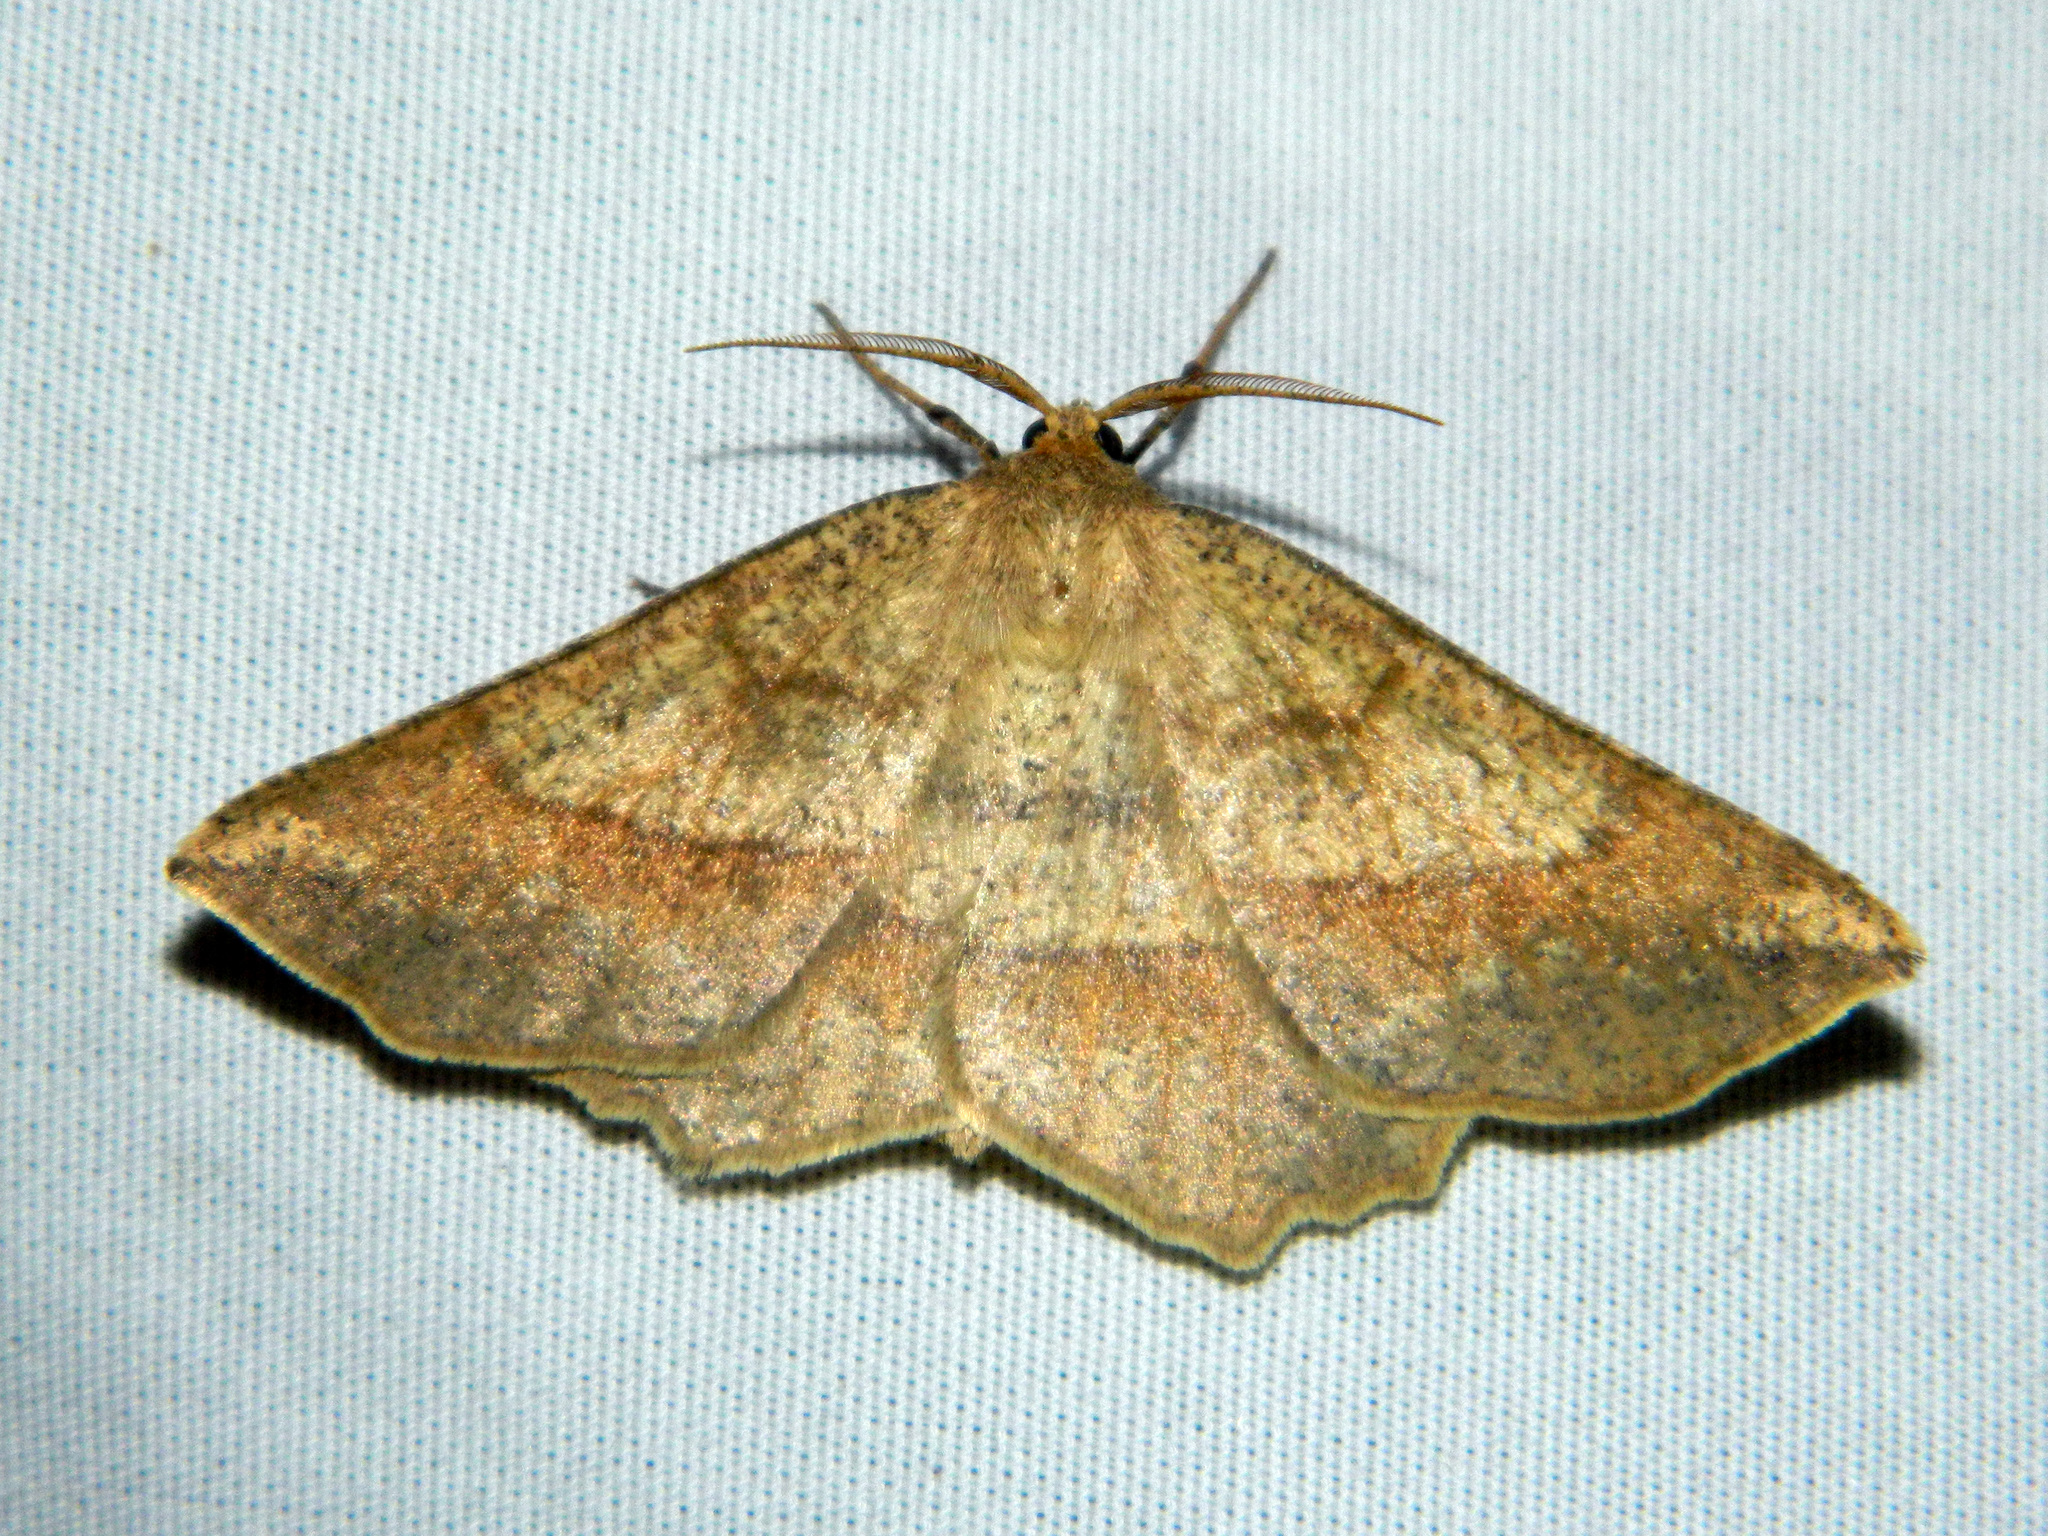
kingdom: Animalia
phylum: Arthropoda
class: Insecta
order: Lepidoptera
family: Geometridae
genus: Euchlaena
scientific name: Euchlaena marginaria
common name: Ochre euchlaena moth
